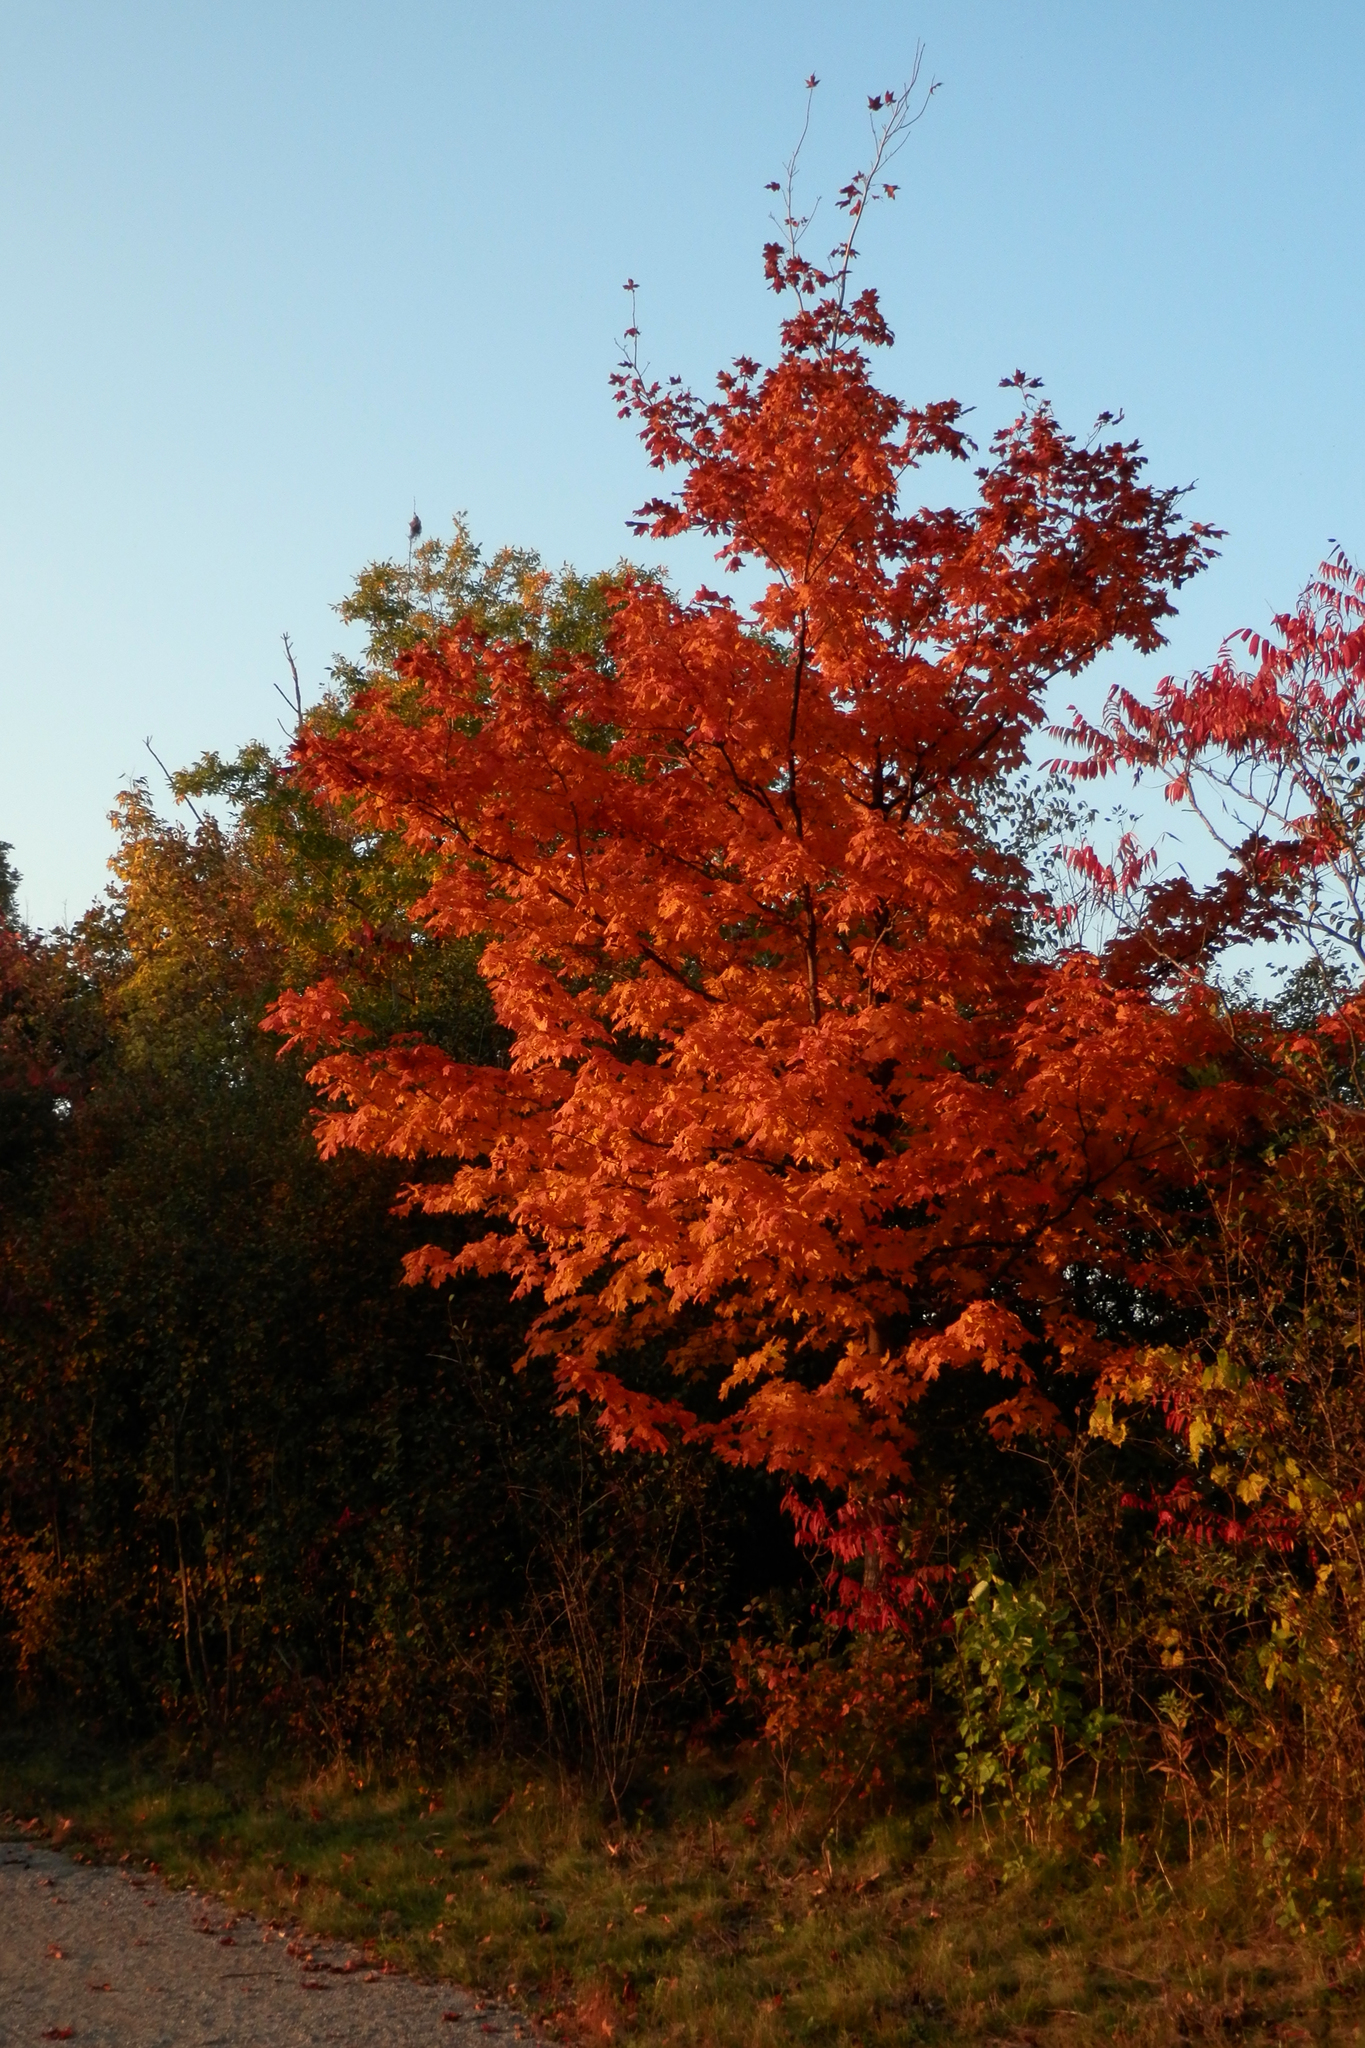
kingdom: Plantae
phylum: Tracheophyta
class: Magnoliopsida
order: Sapindales
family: Sapindaceae
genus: Acer
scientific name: Acer saccharum
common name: Sugar maple
